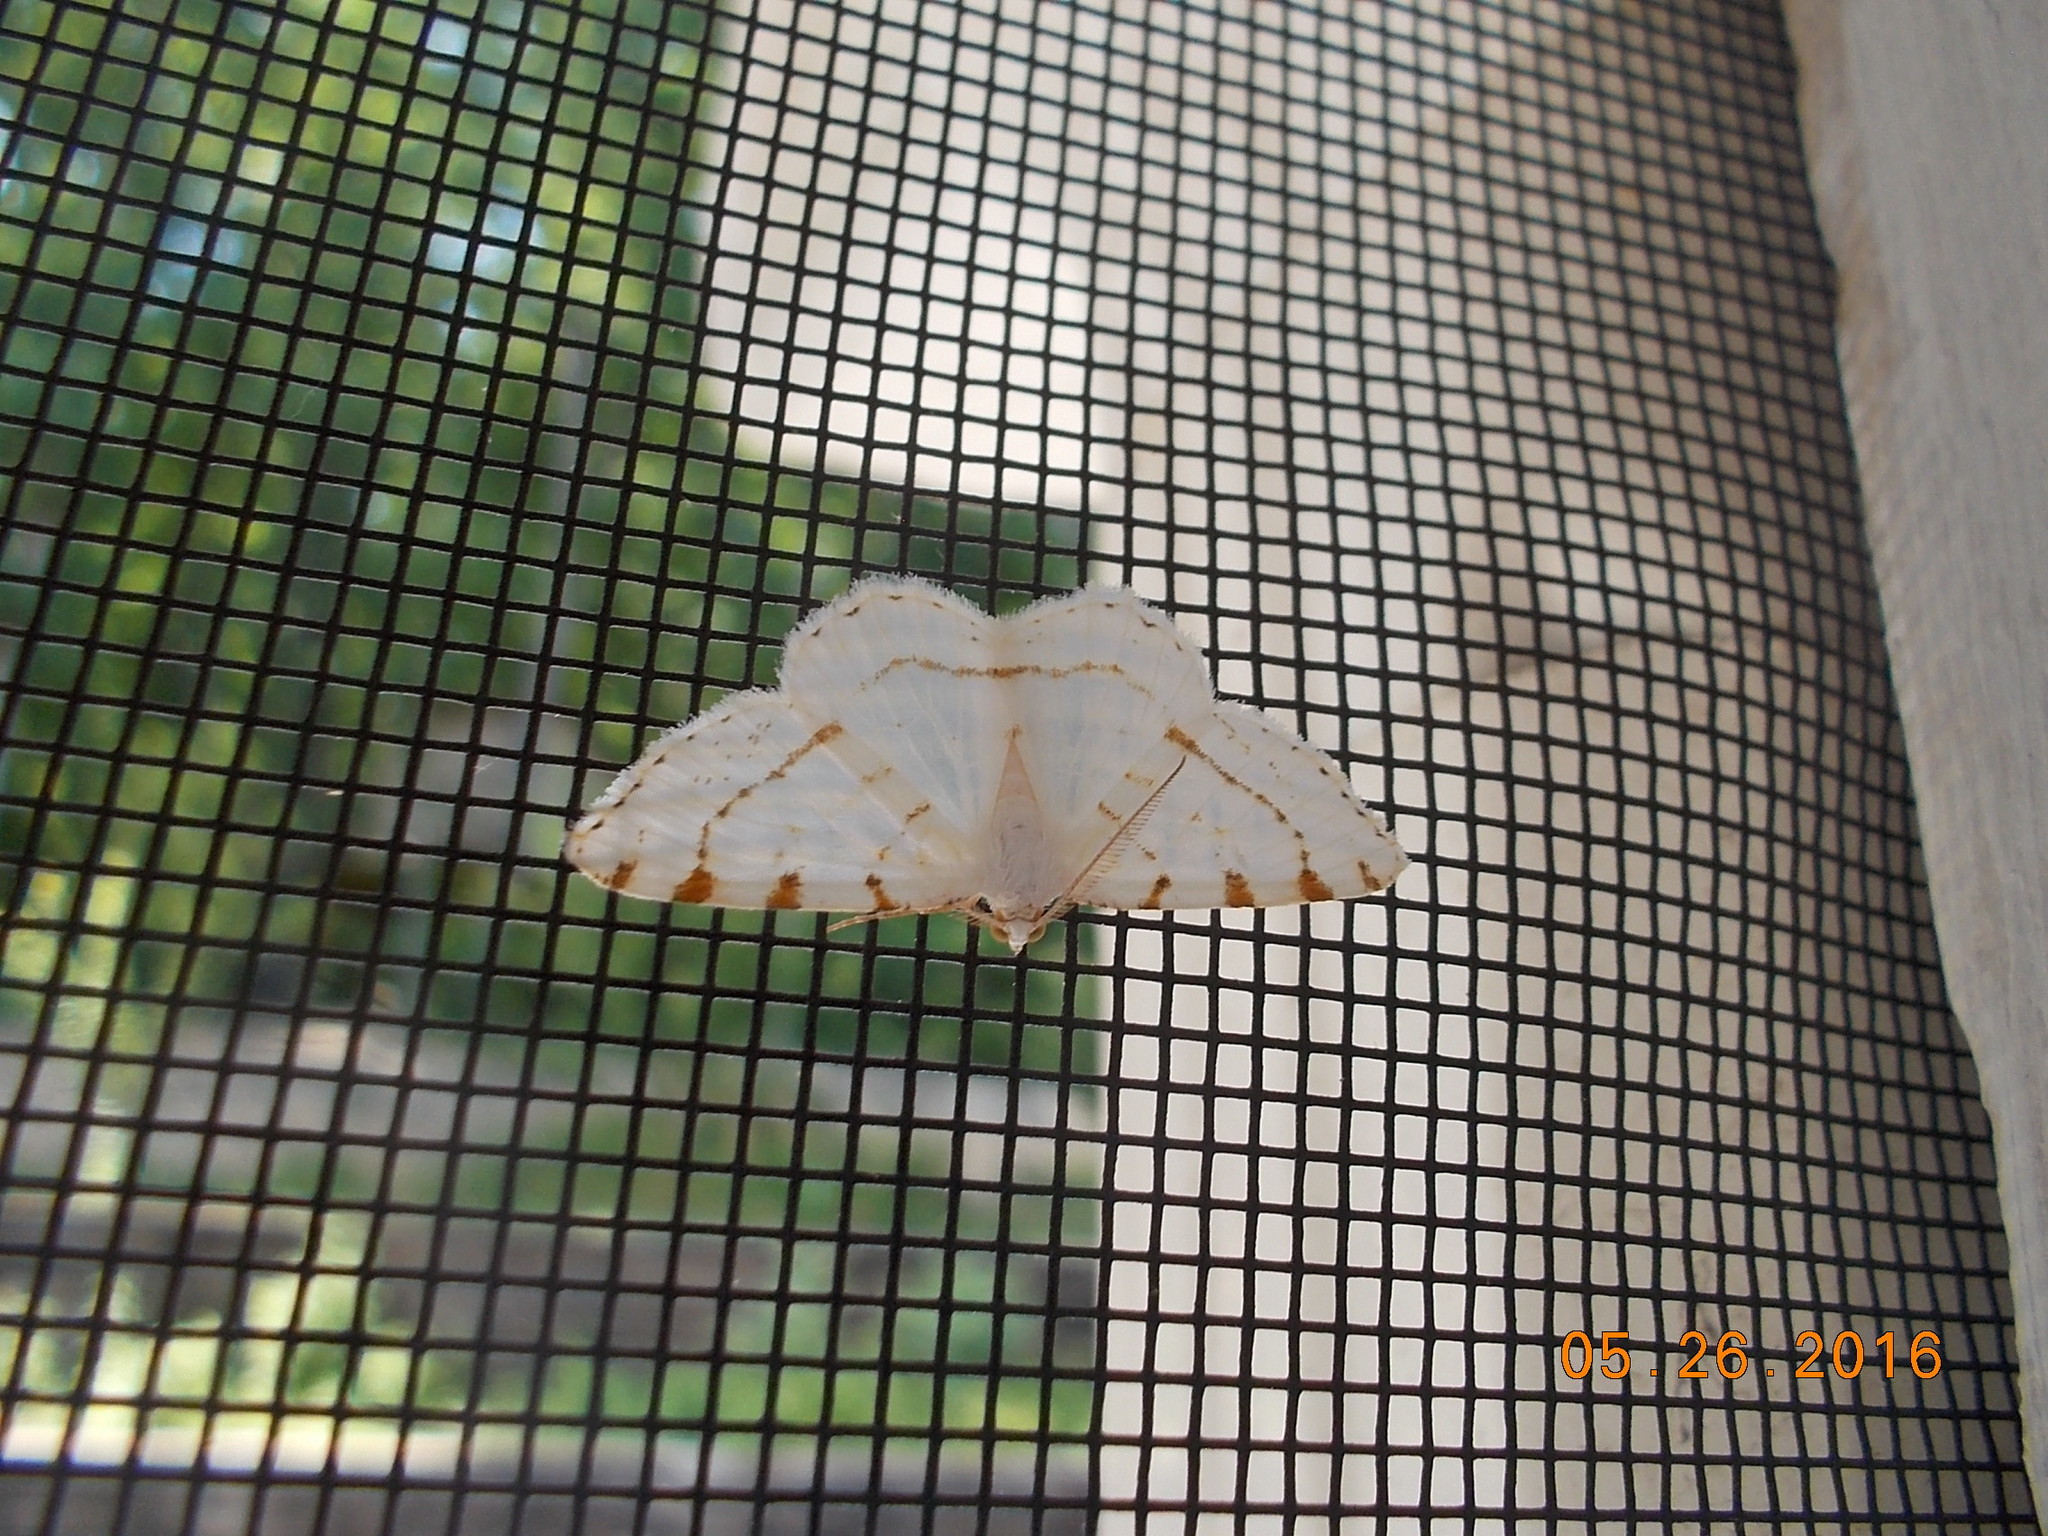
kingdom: Animalia
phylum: Arthropoda
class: Insecta
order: Lepidoptera
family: Geometridae
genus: Macaria
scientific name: Macaria pustularia
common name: Lesser maple spanworm moth
